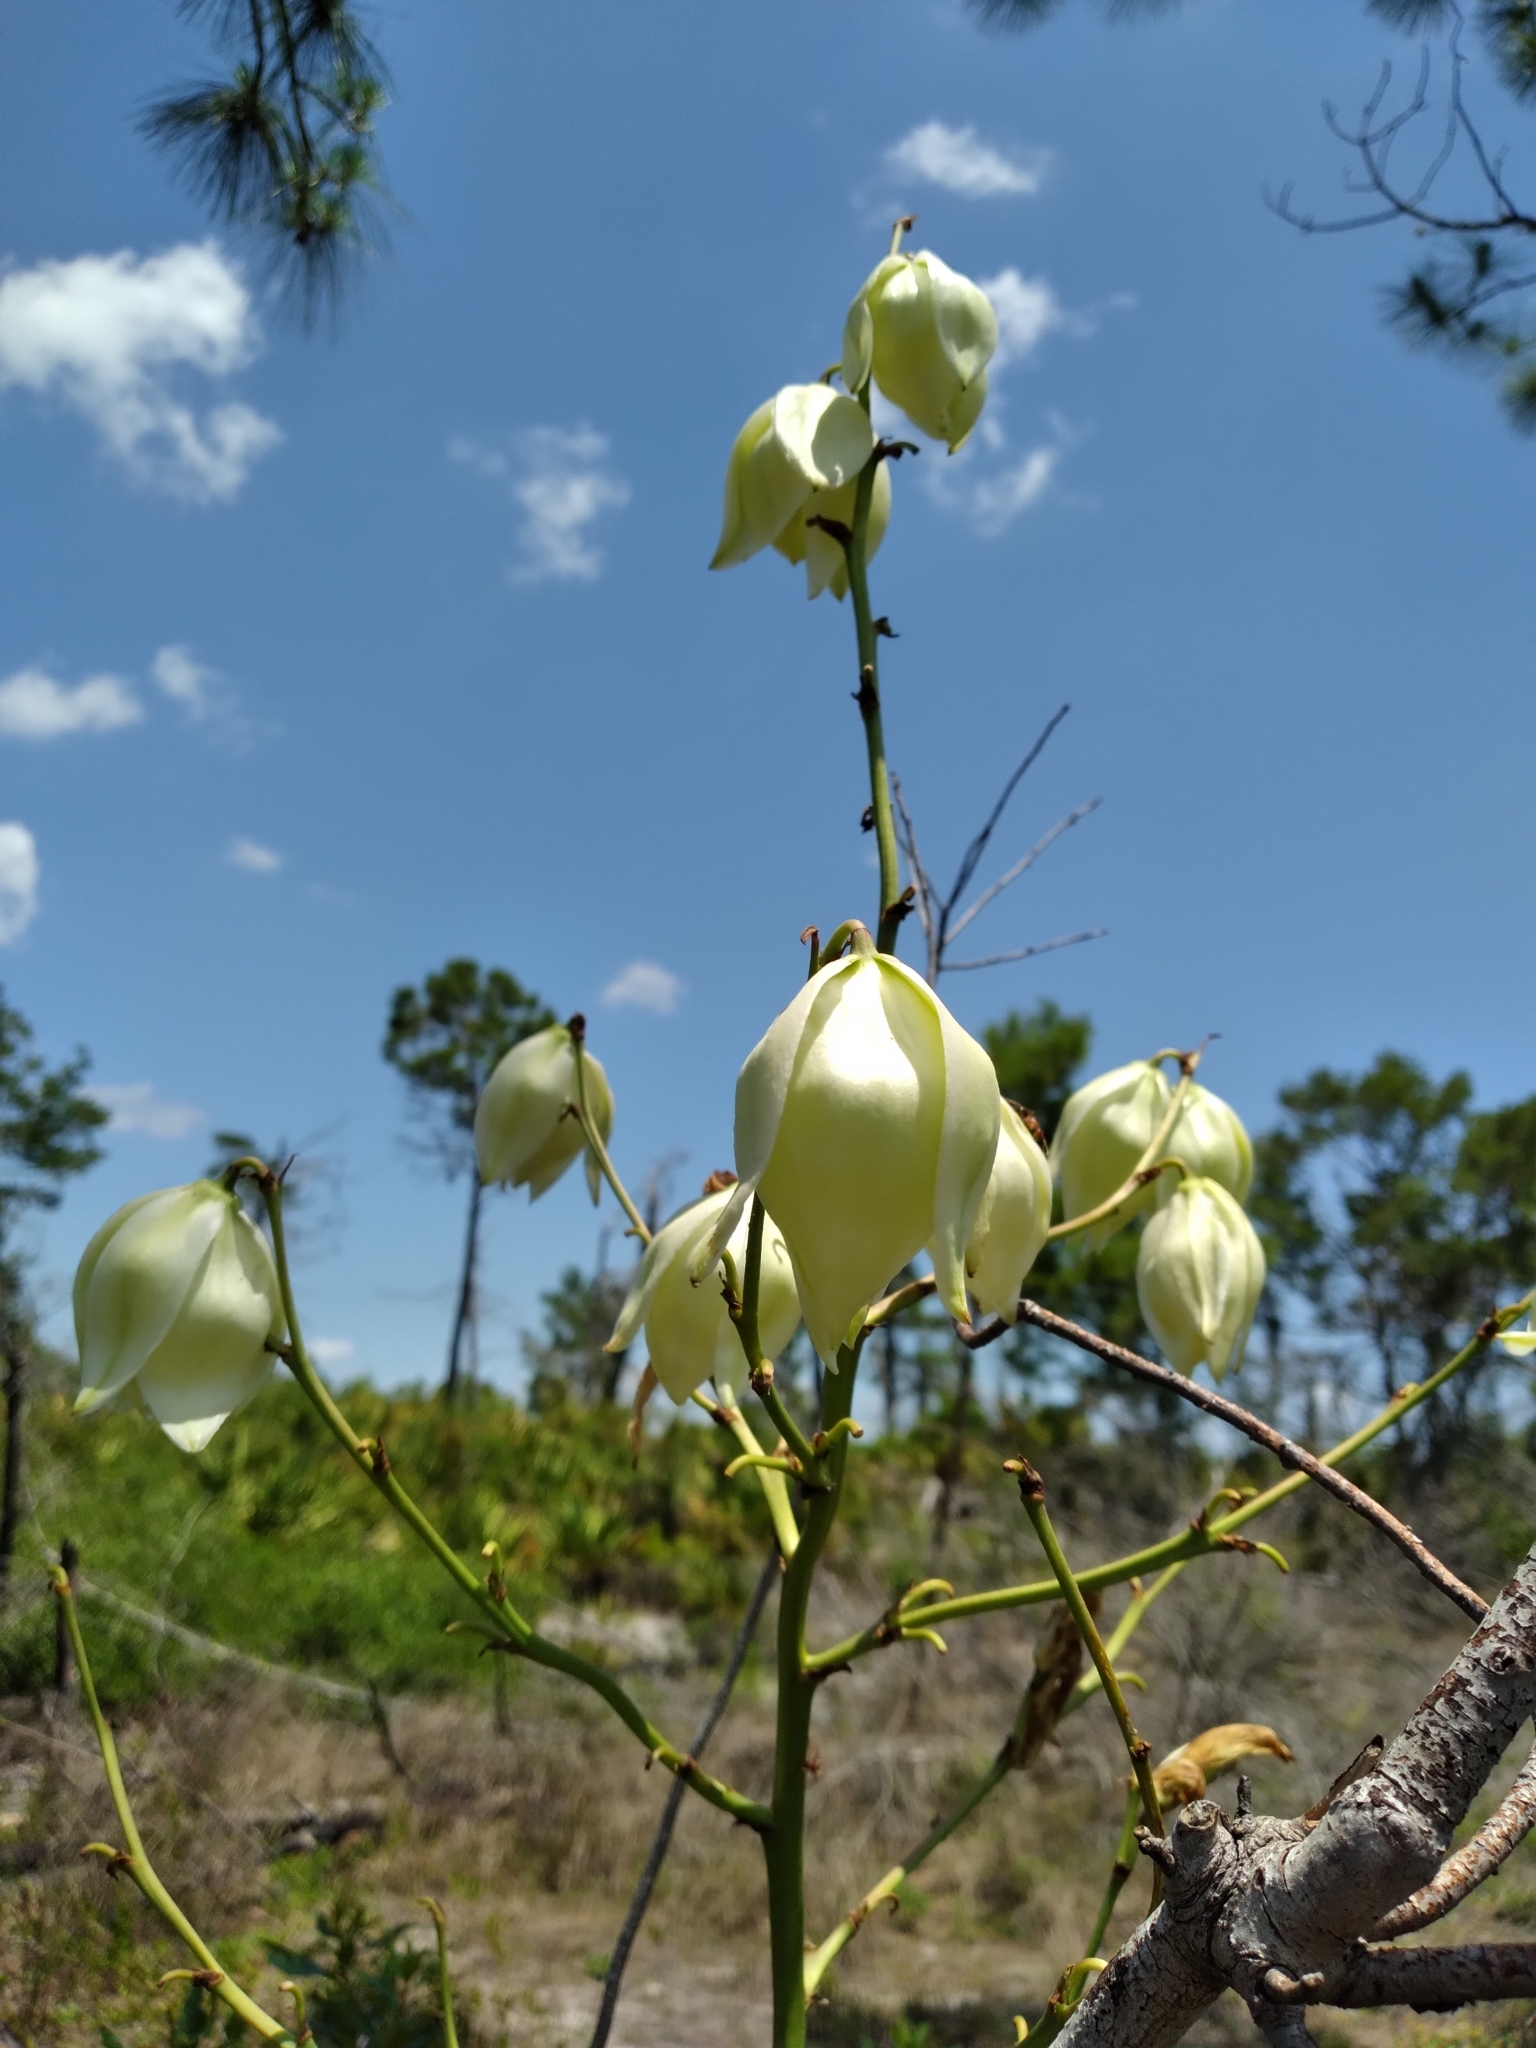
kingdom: Plantae
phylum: Tracheophyta
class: Liliopsida
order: Asparagales
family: Asparagaceae
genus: Yucca
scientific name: Yucca filamentosa
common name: Adam's-needle
